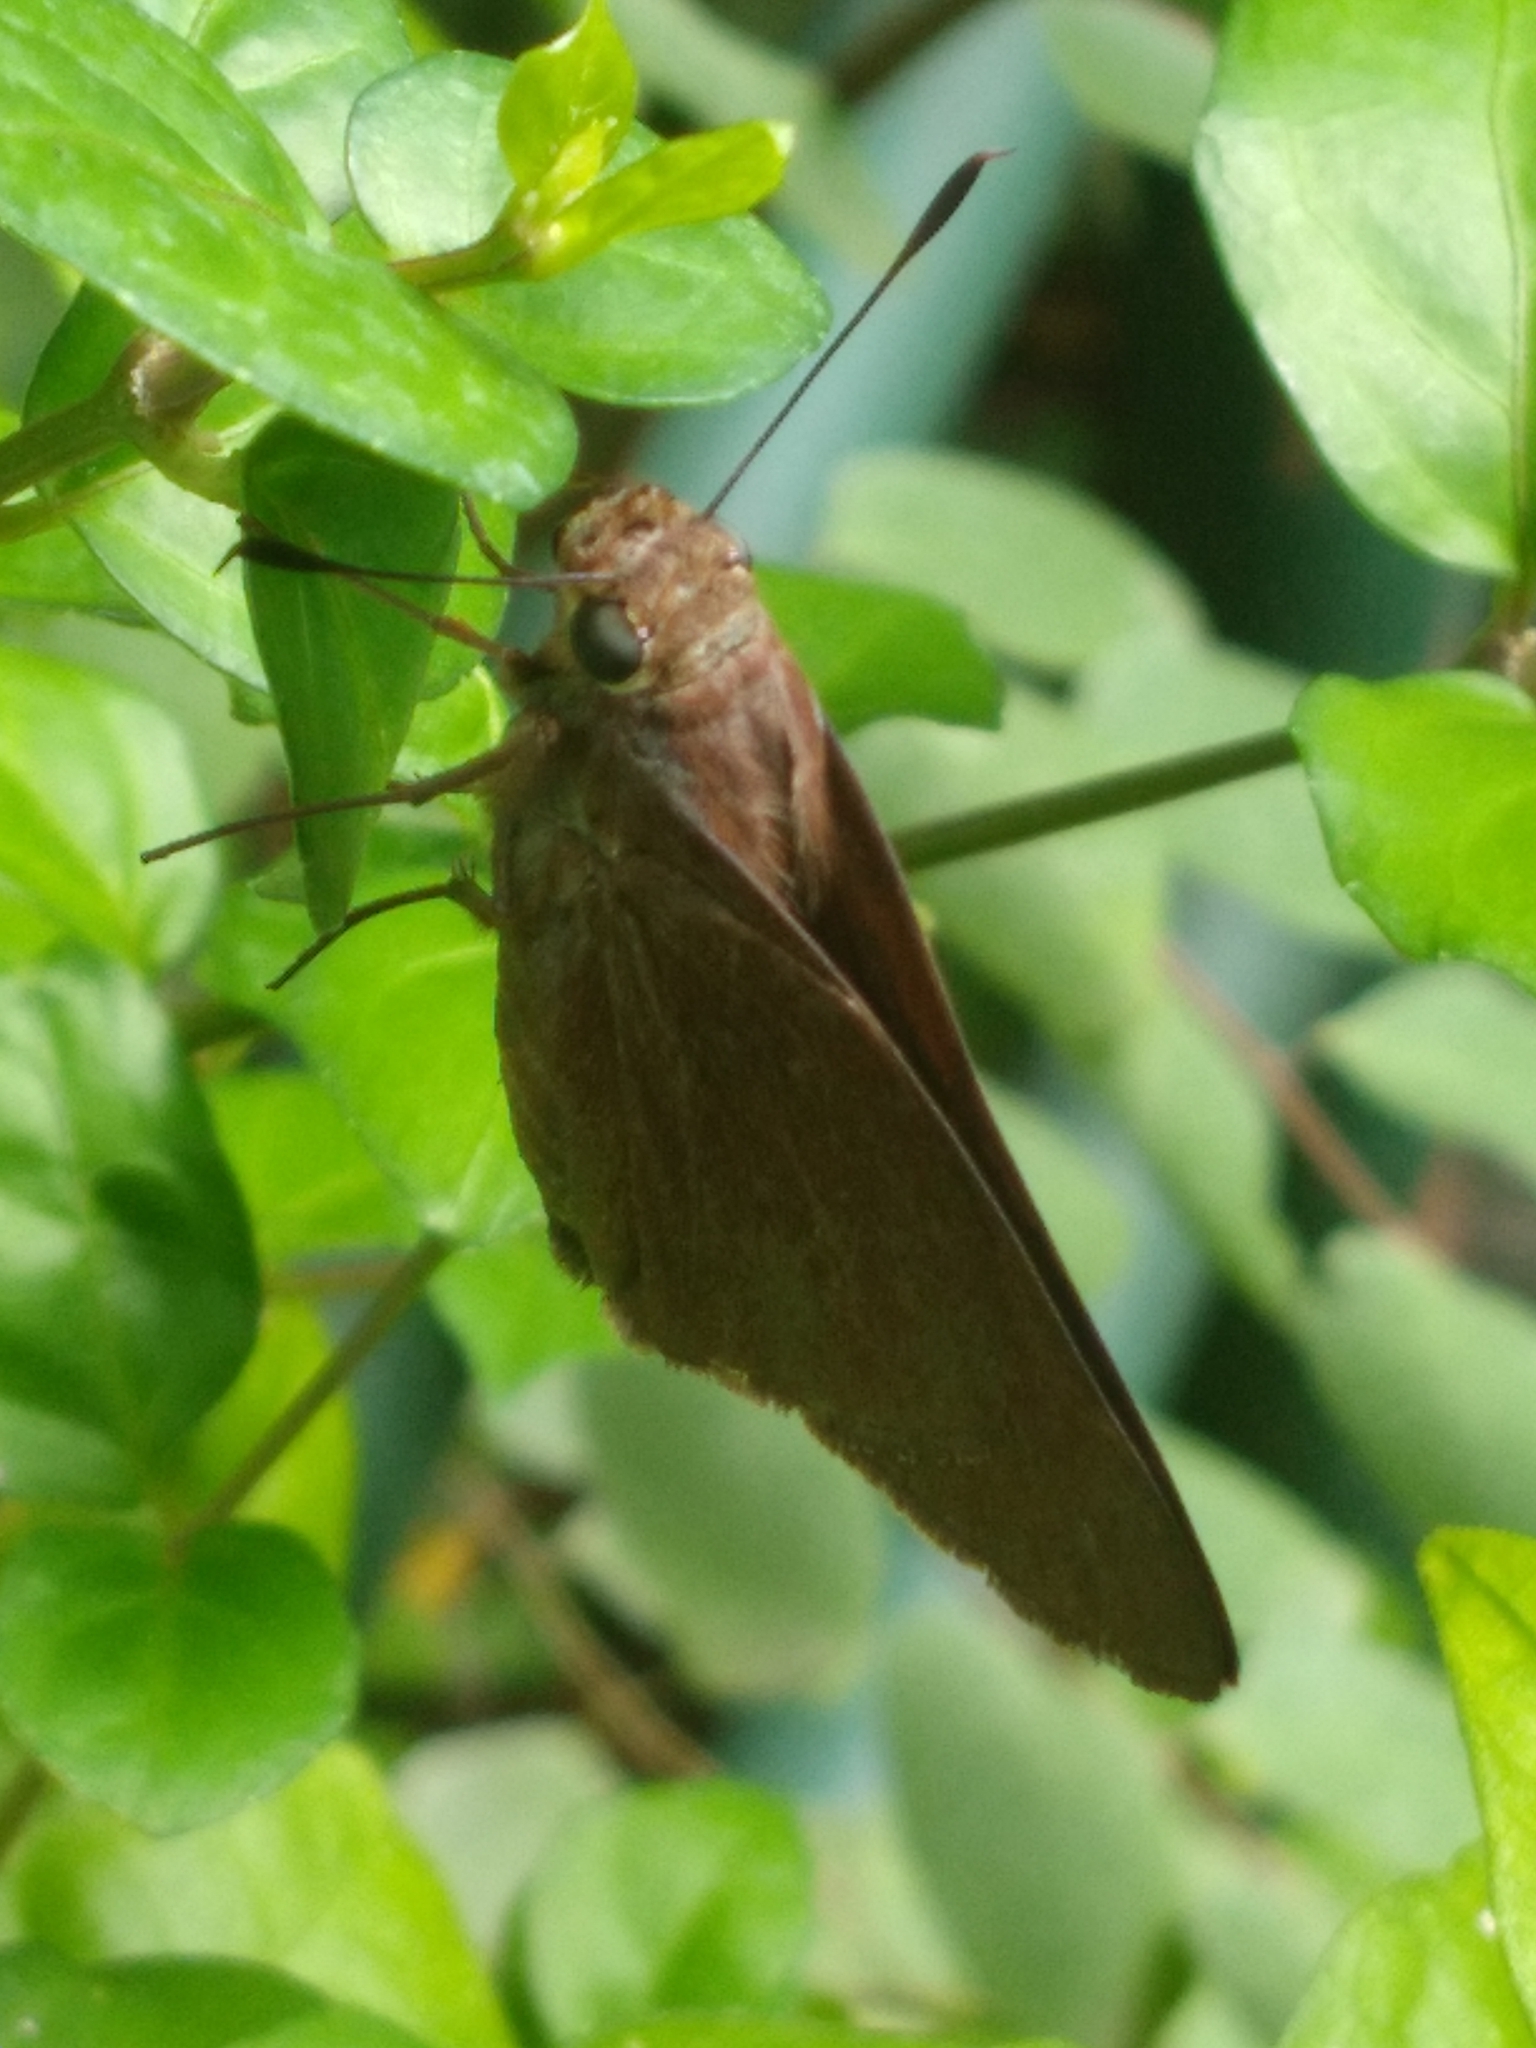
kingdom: Animalia
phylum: Arthropoda
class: Insecta
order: Lepidoptera
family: Hesperiidae
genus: Asbolis
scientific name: Asbolis capucinus
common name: Monk skipper
